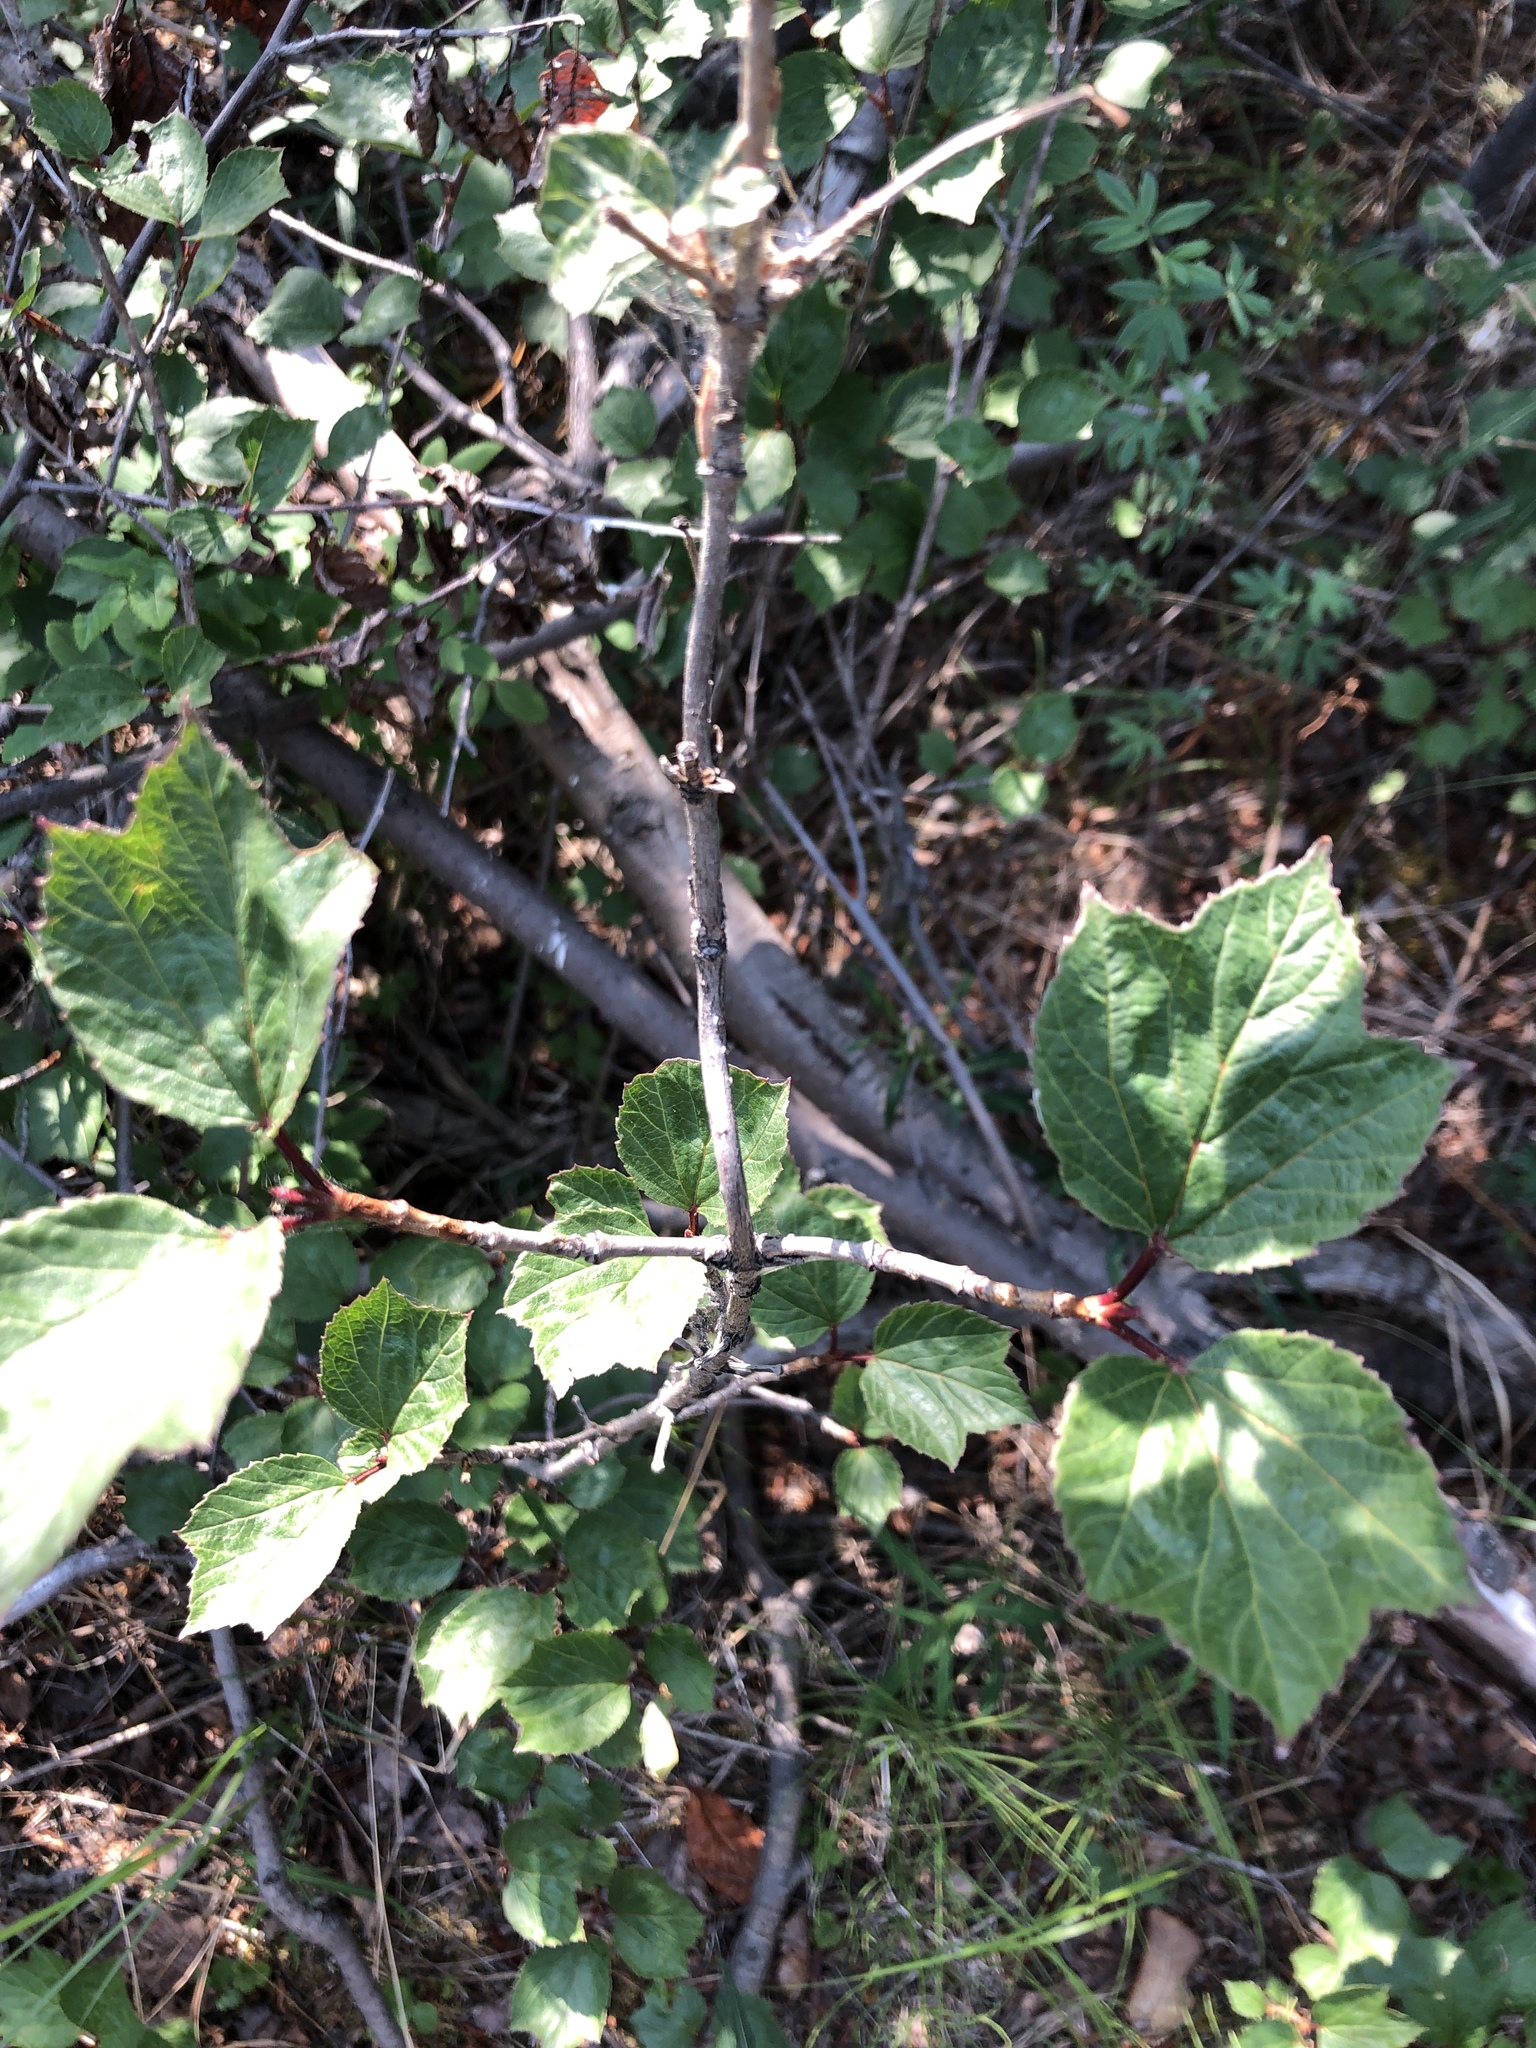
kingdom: Plantae
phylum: Tracheophyta
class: Magnoliopsida
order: Dipsacales
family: Viburnaceae
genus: Viburnum
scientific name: Viburnum edule
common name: Mooseberry
